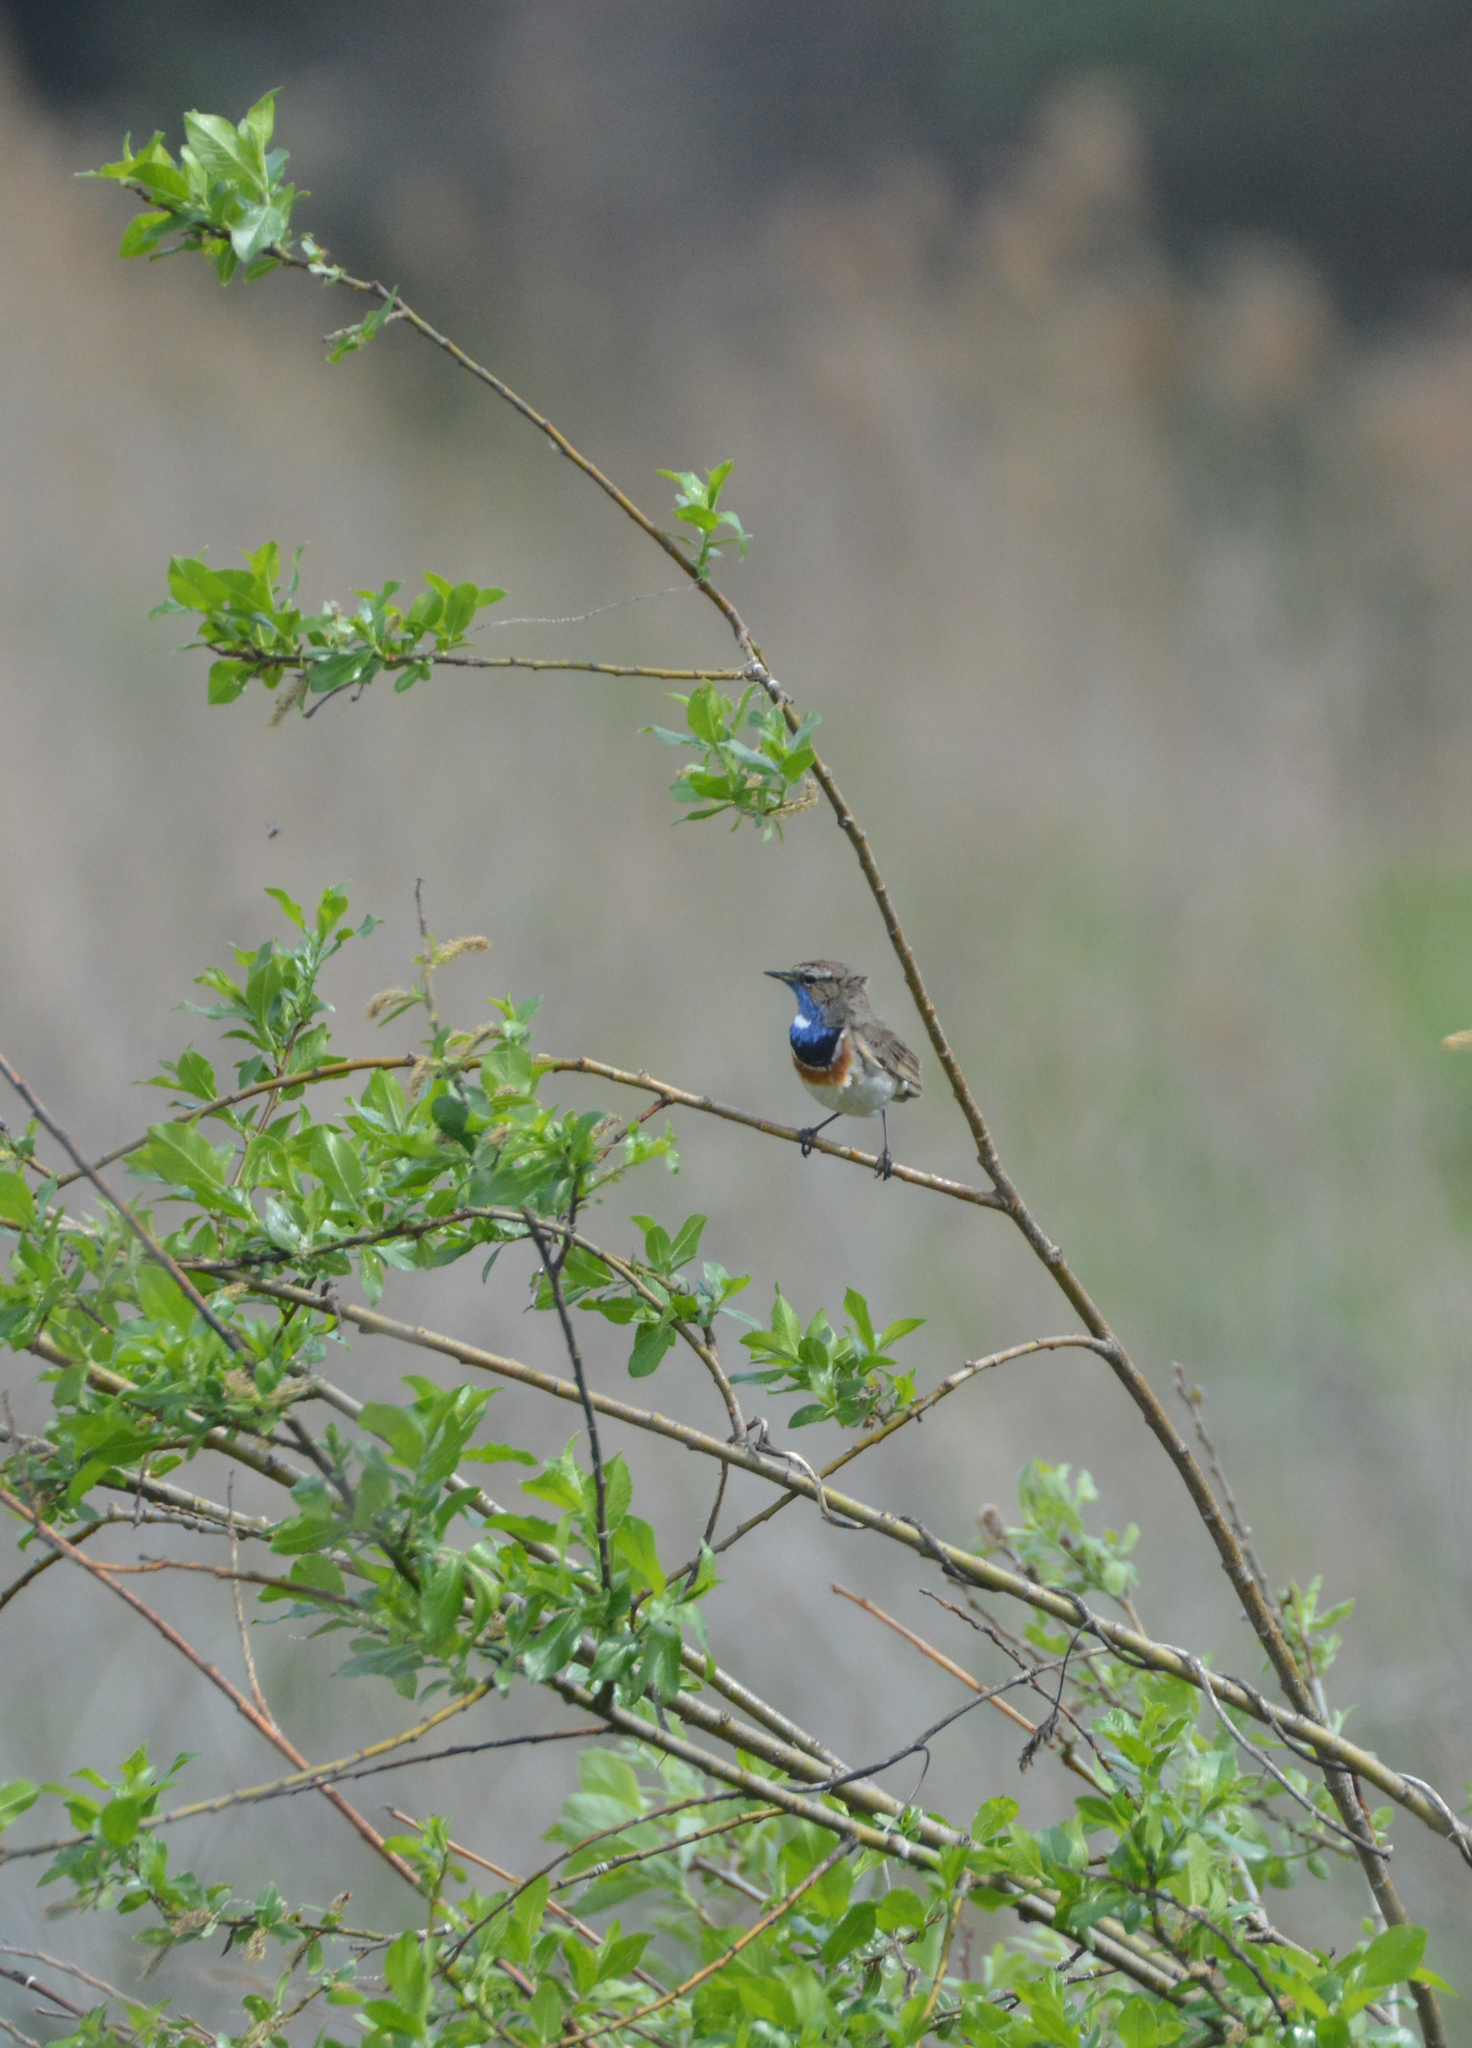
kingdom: Animalia
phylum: Chordata
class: Aves
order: Passeriformes
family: Muscicapidae
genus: Luscinia
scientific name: Luscinia svecica
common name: Bluethroat
